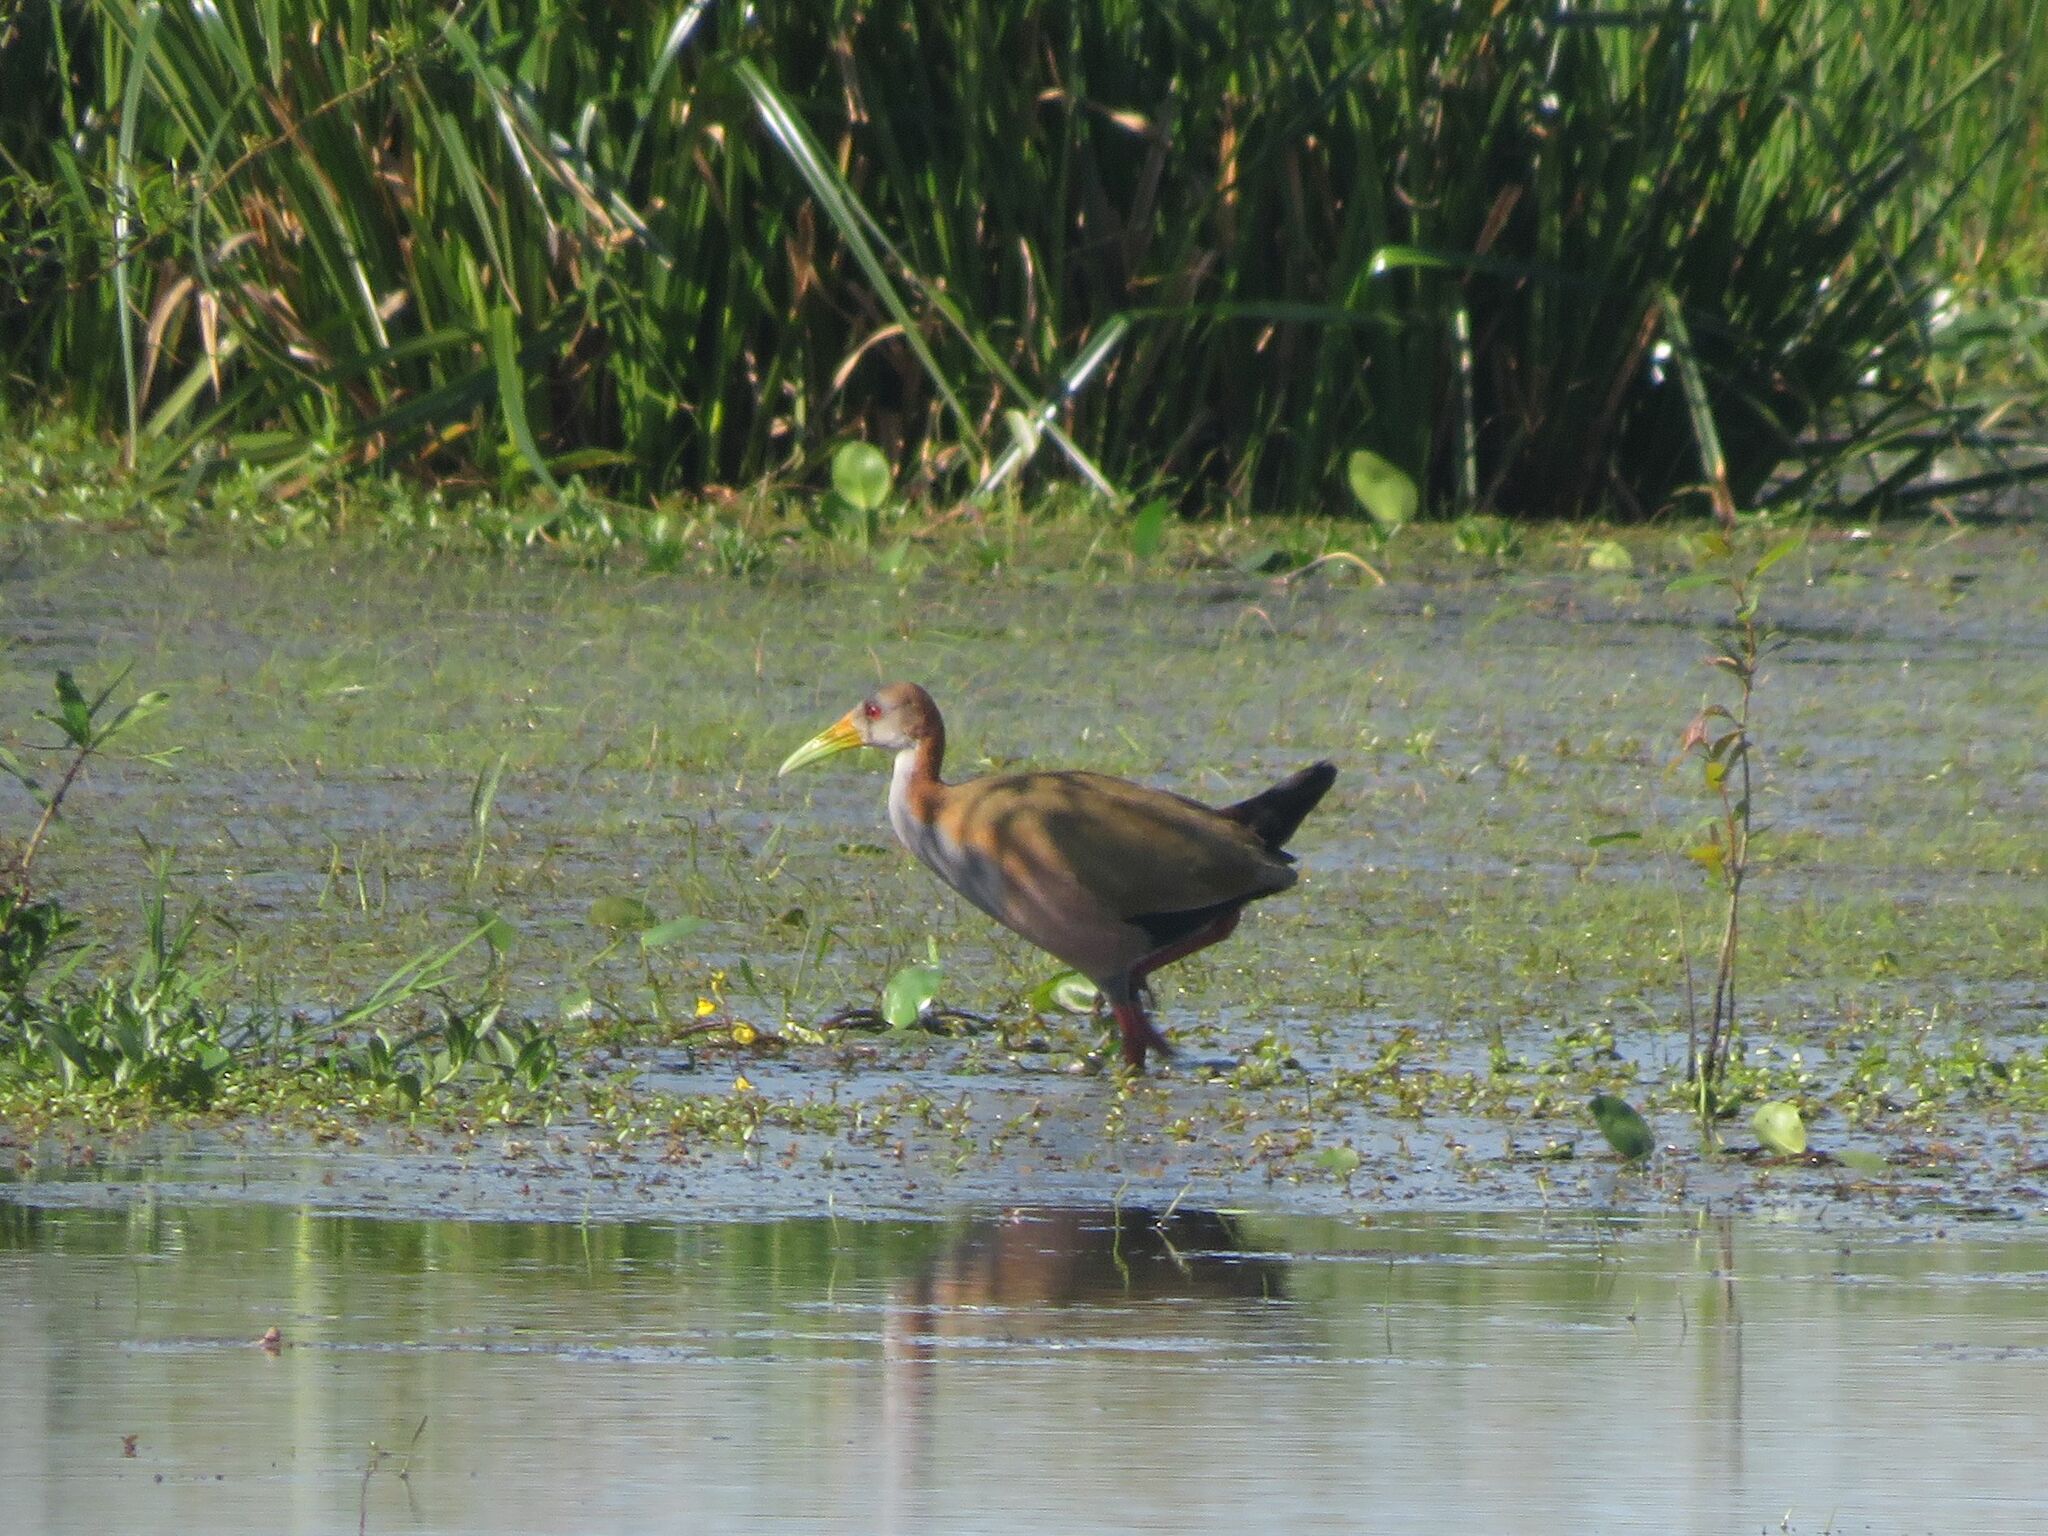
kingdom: Animalia
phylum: Chordata
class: Aves
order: Gruiformes
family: Rallidae
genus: Aramides
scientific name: Aramides ypecaha
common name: Giant wood rail
